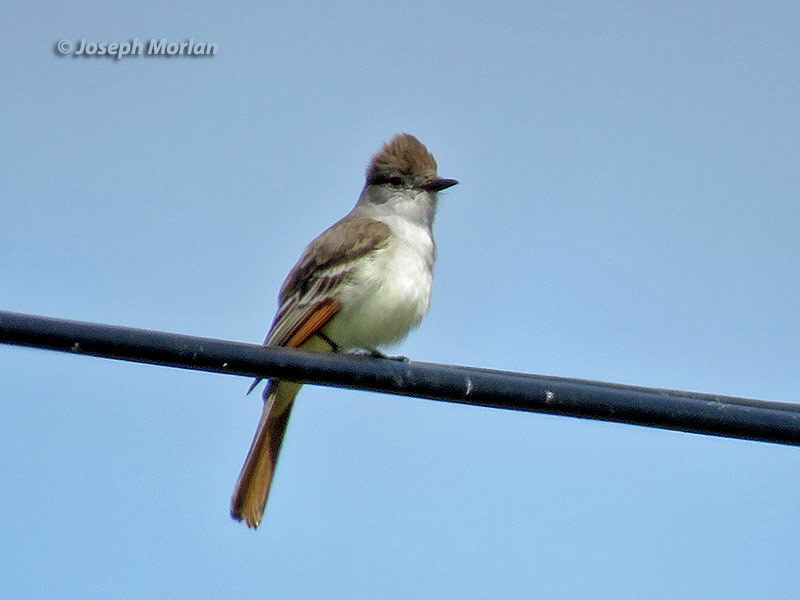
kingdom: Animalia
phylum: Chordata
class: Aves
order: Passeriformes
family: Tyrannidae
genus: Myiarchus
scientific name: Myiarchus cinerascens
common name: Ash-throated flycatcher
